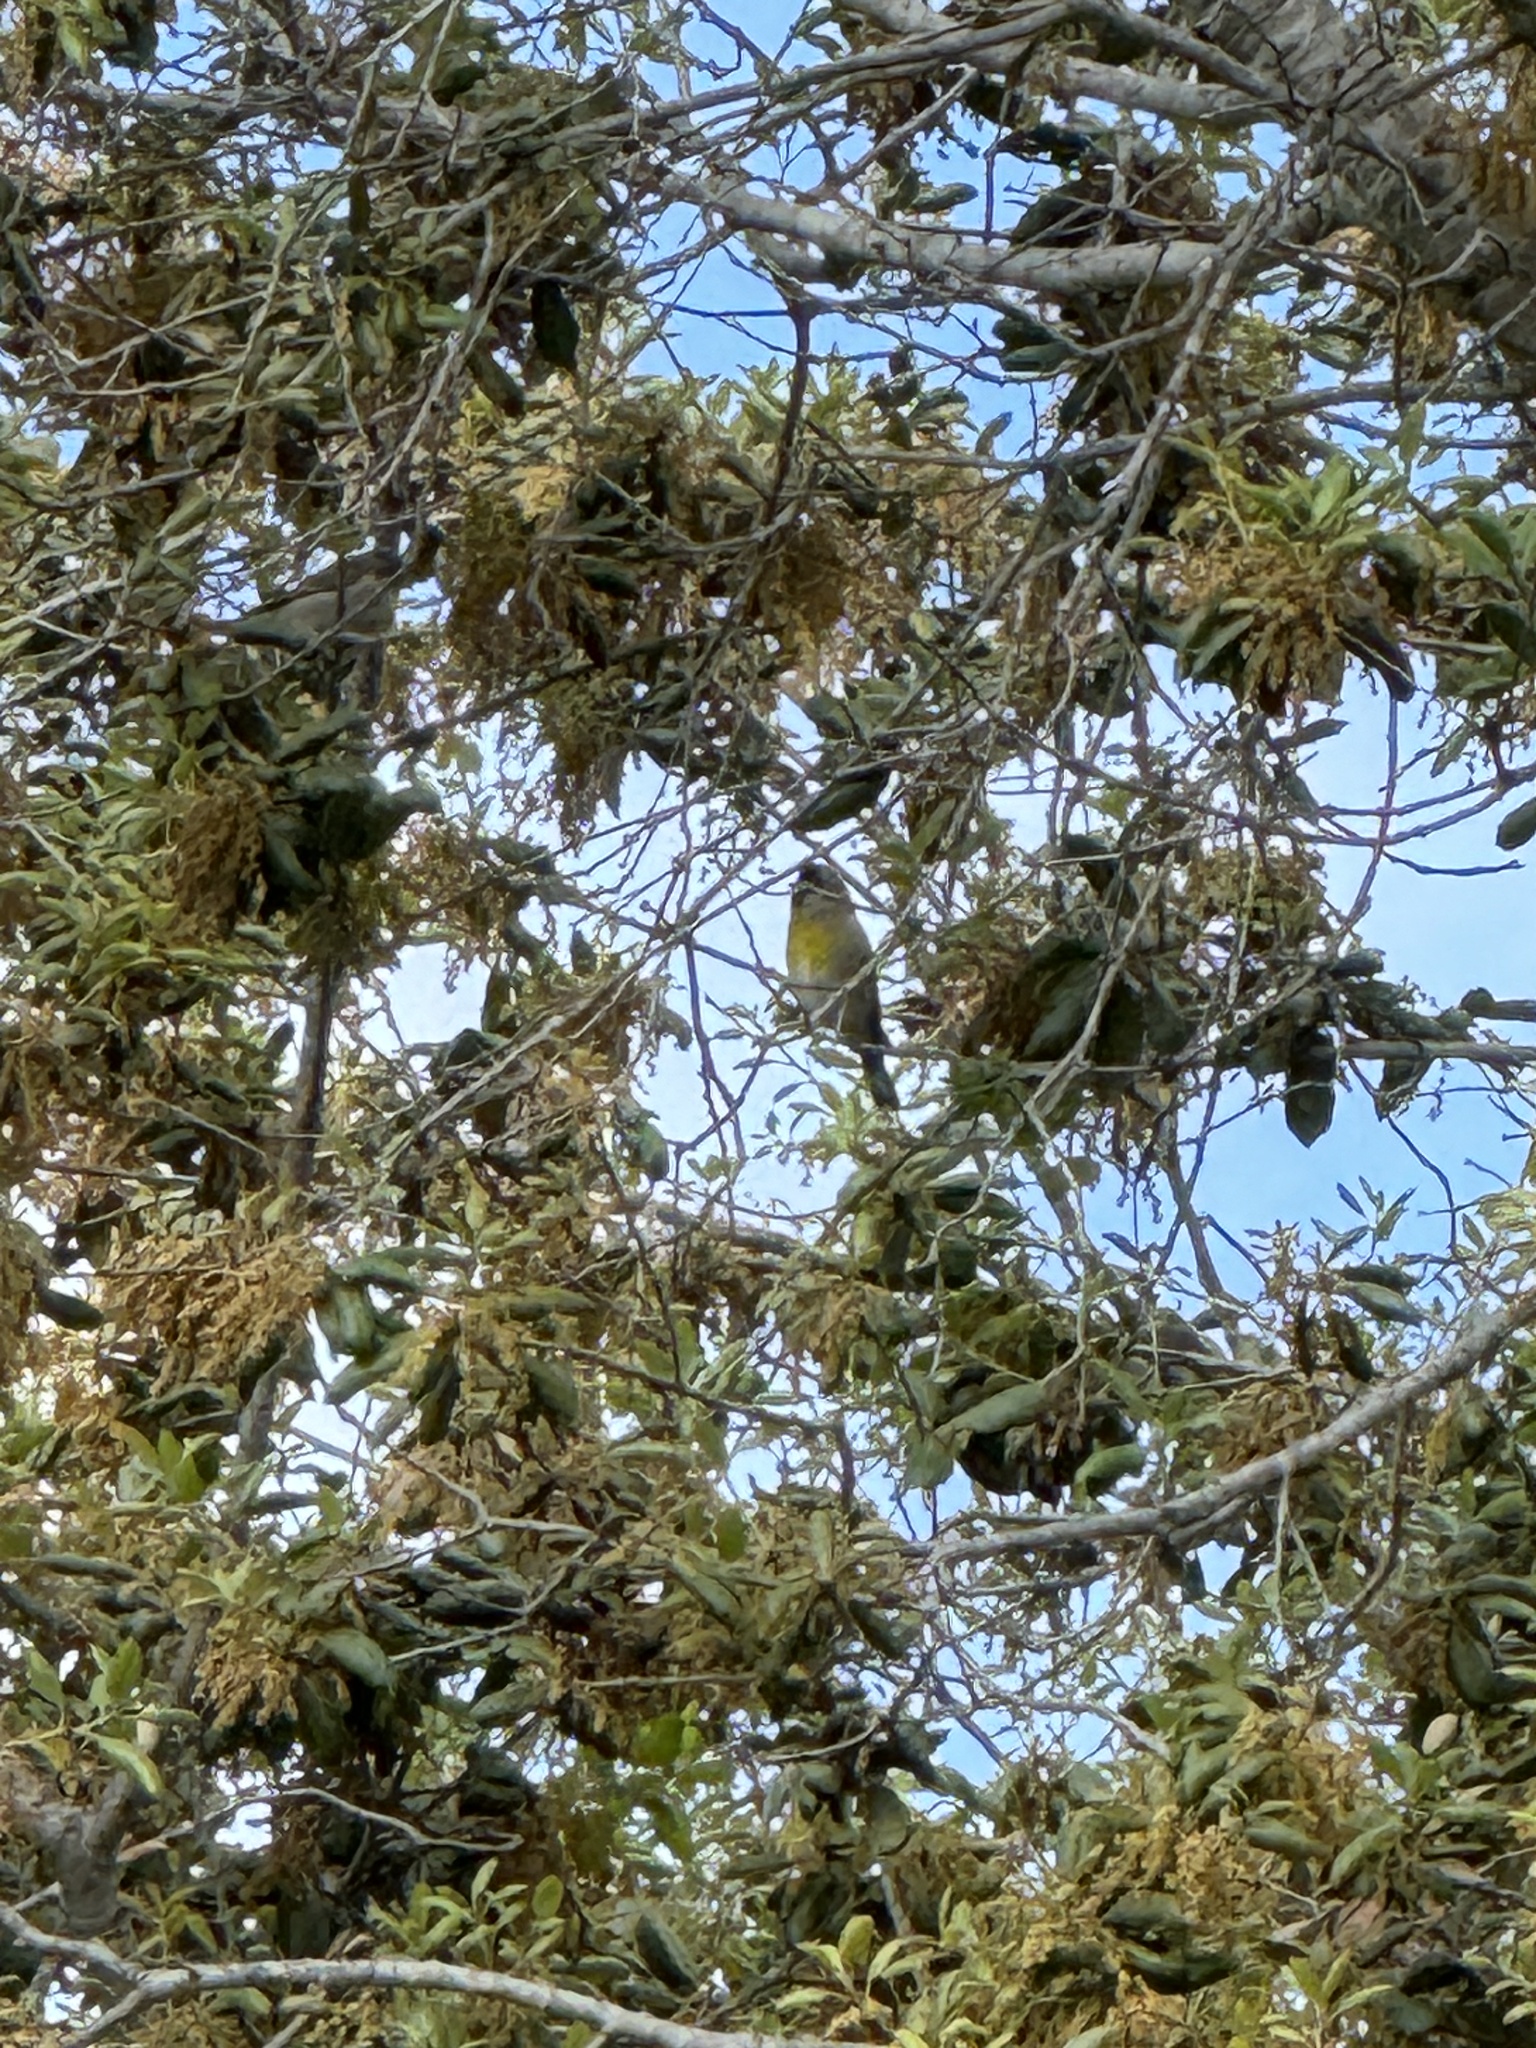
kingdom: Animalia
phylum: Chordata
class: Aves
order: Passeriformes
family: Fringillidae
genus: Spinus
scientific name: Spinus lawrencei
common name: Lawrence's goldfinch
